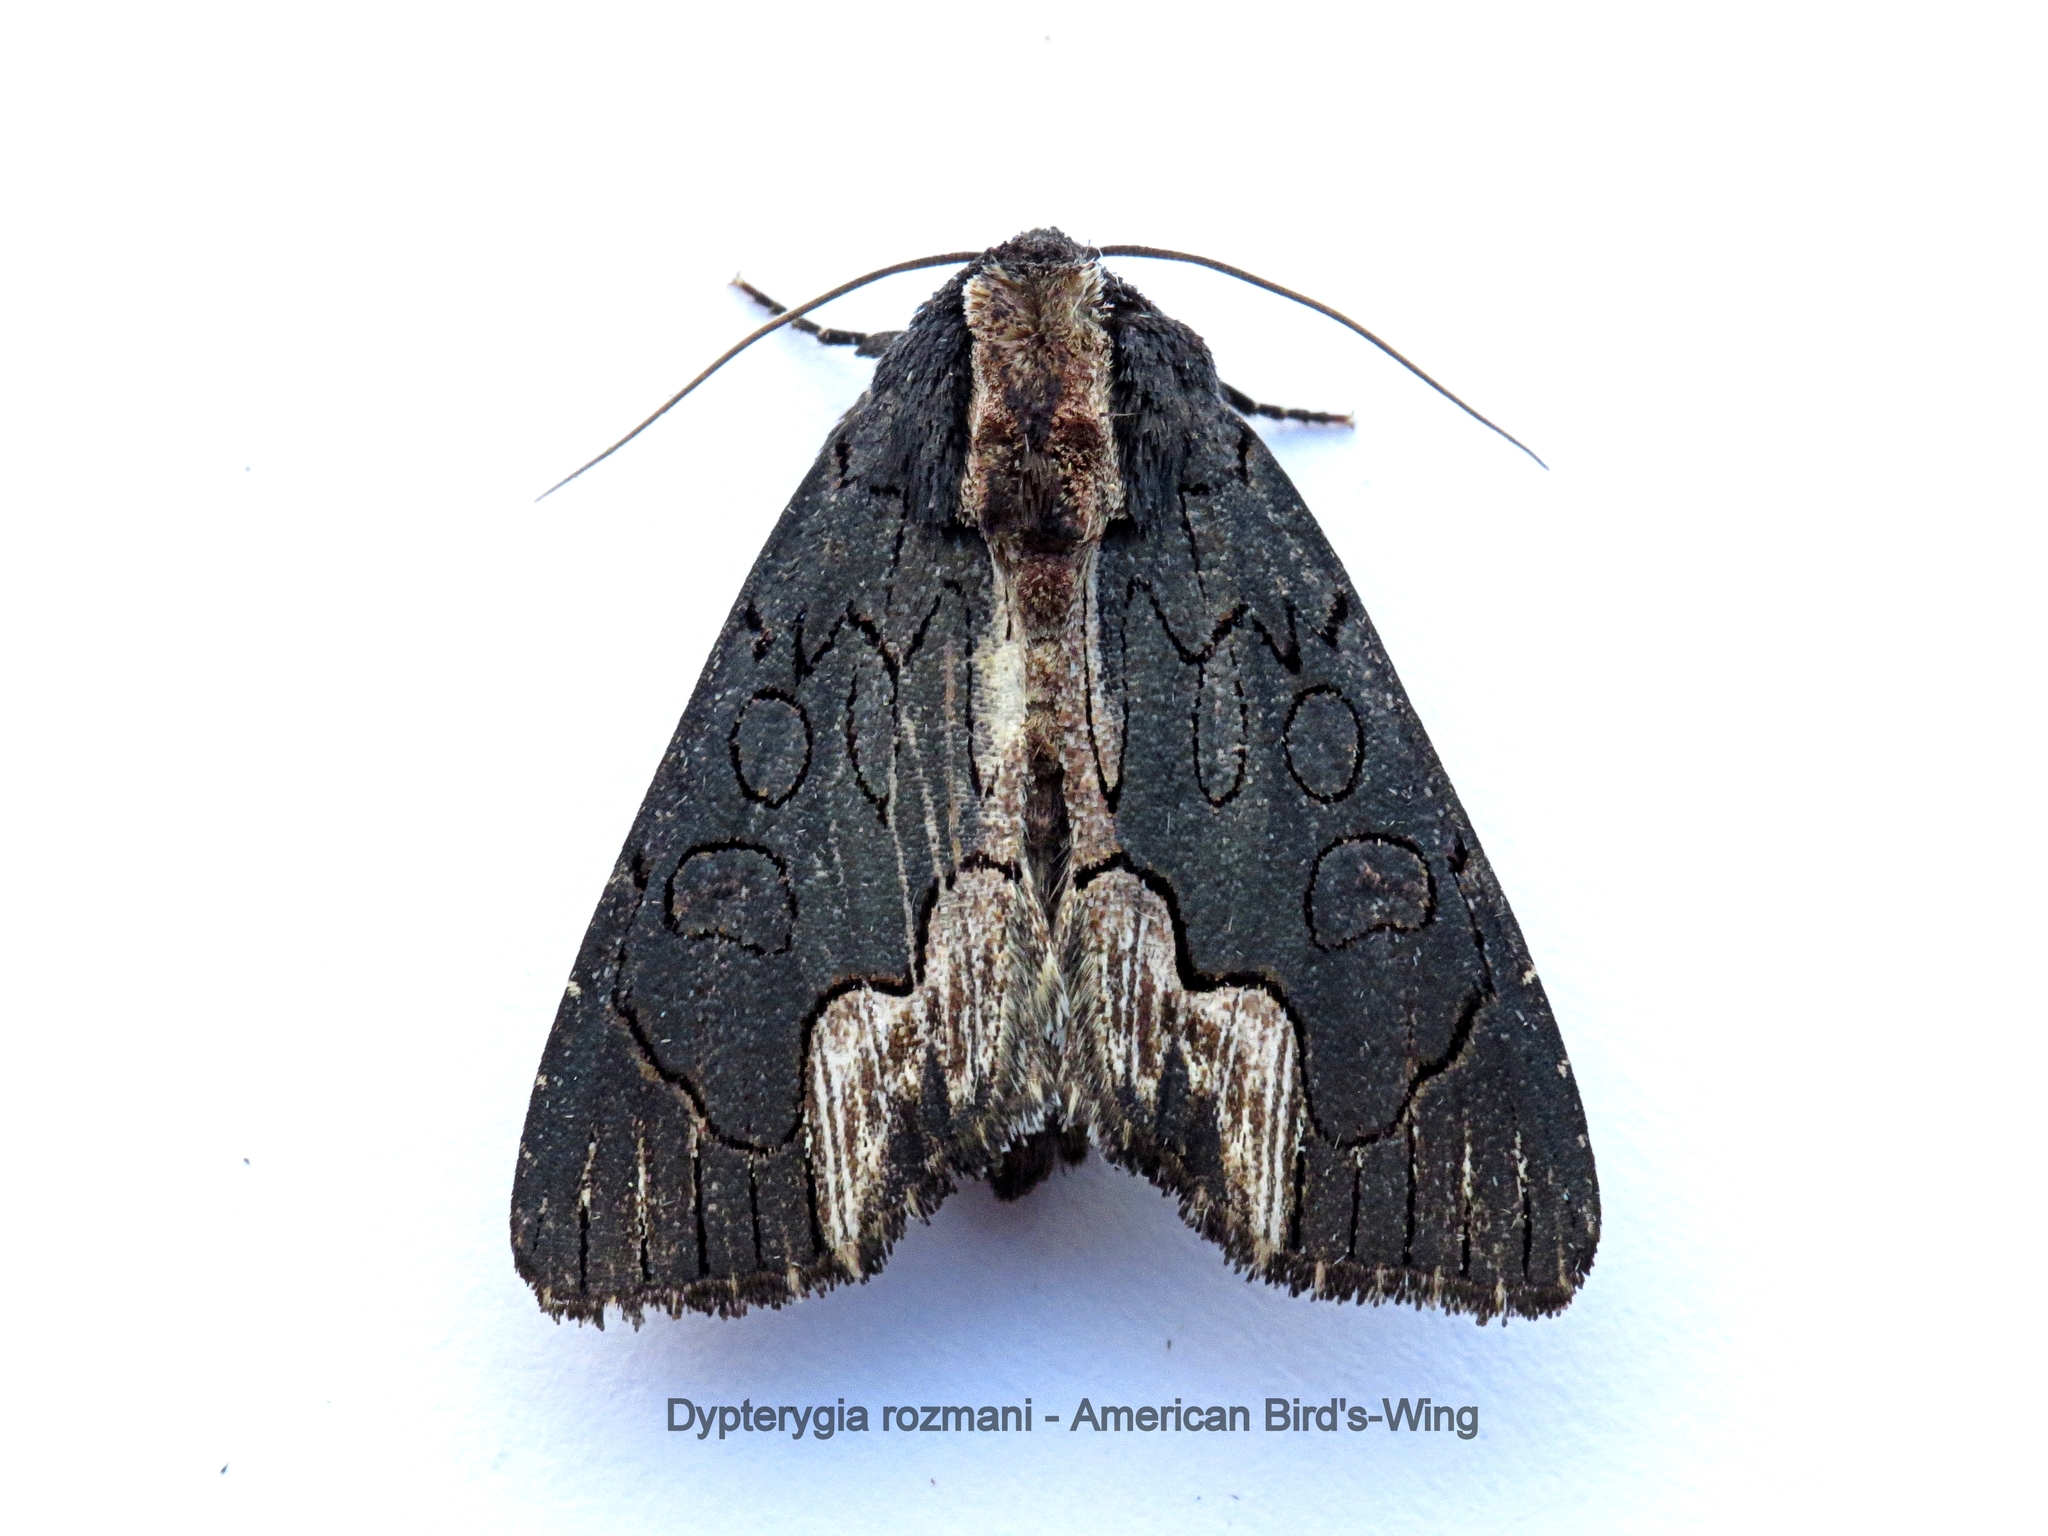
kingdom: Animalia
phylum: Arthropoda
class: Insecta
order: Lepidoptera
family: Noctuidae
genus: Dypterygia
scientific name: Dypterygia rozmani
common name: American bird's-wing
